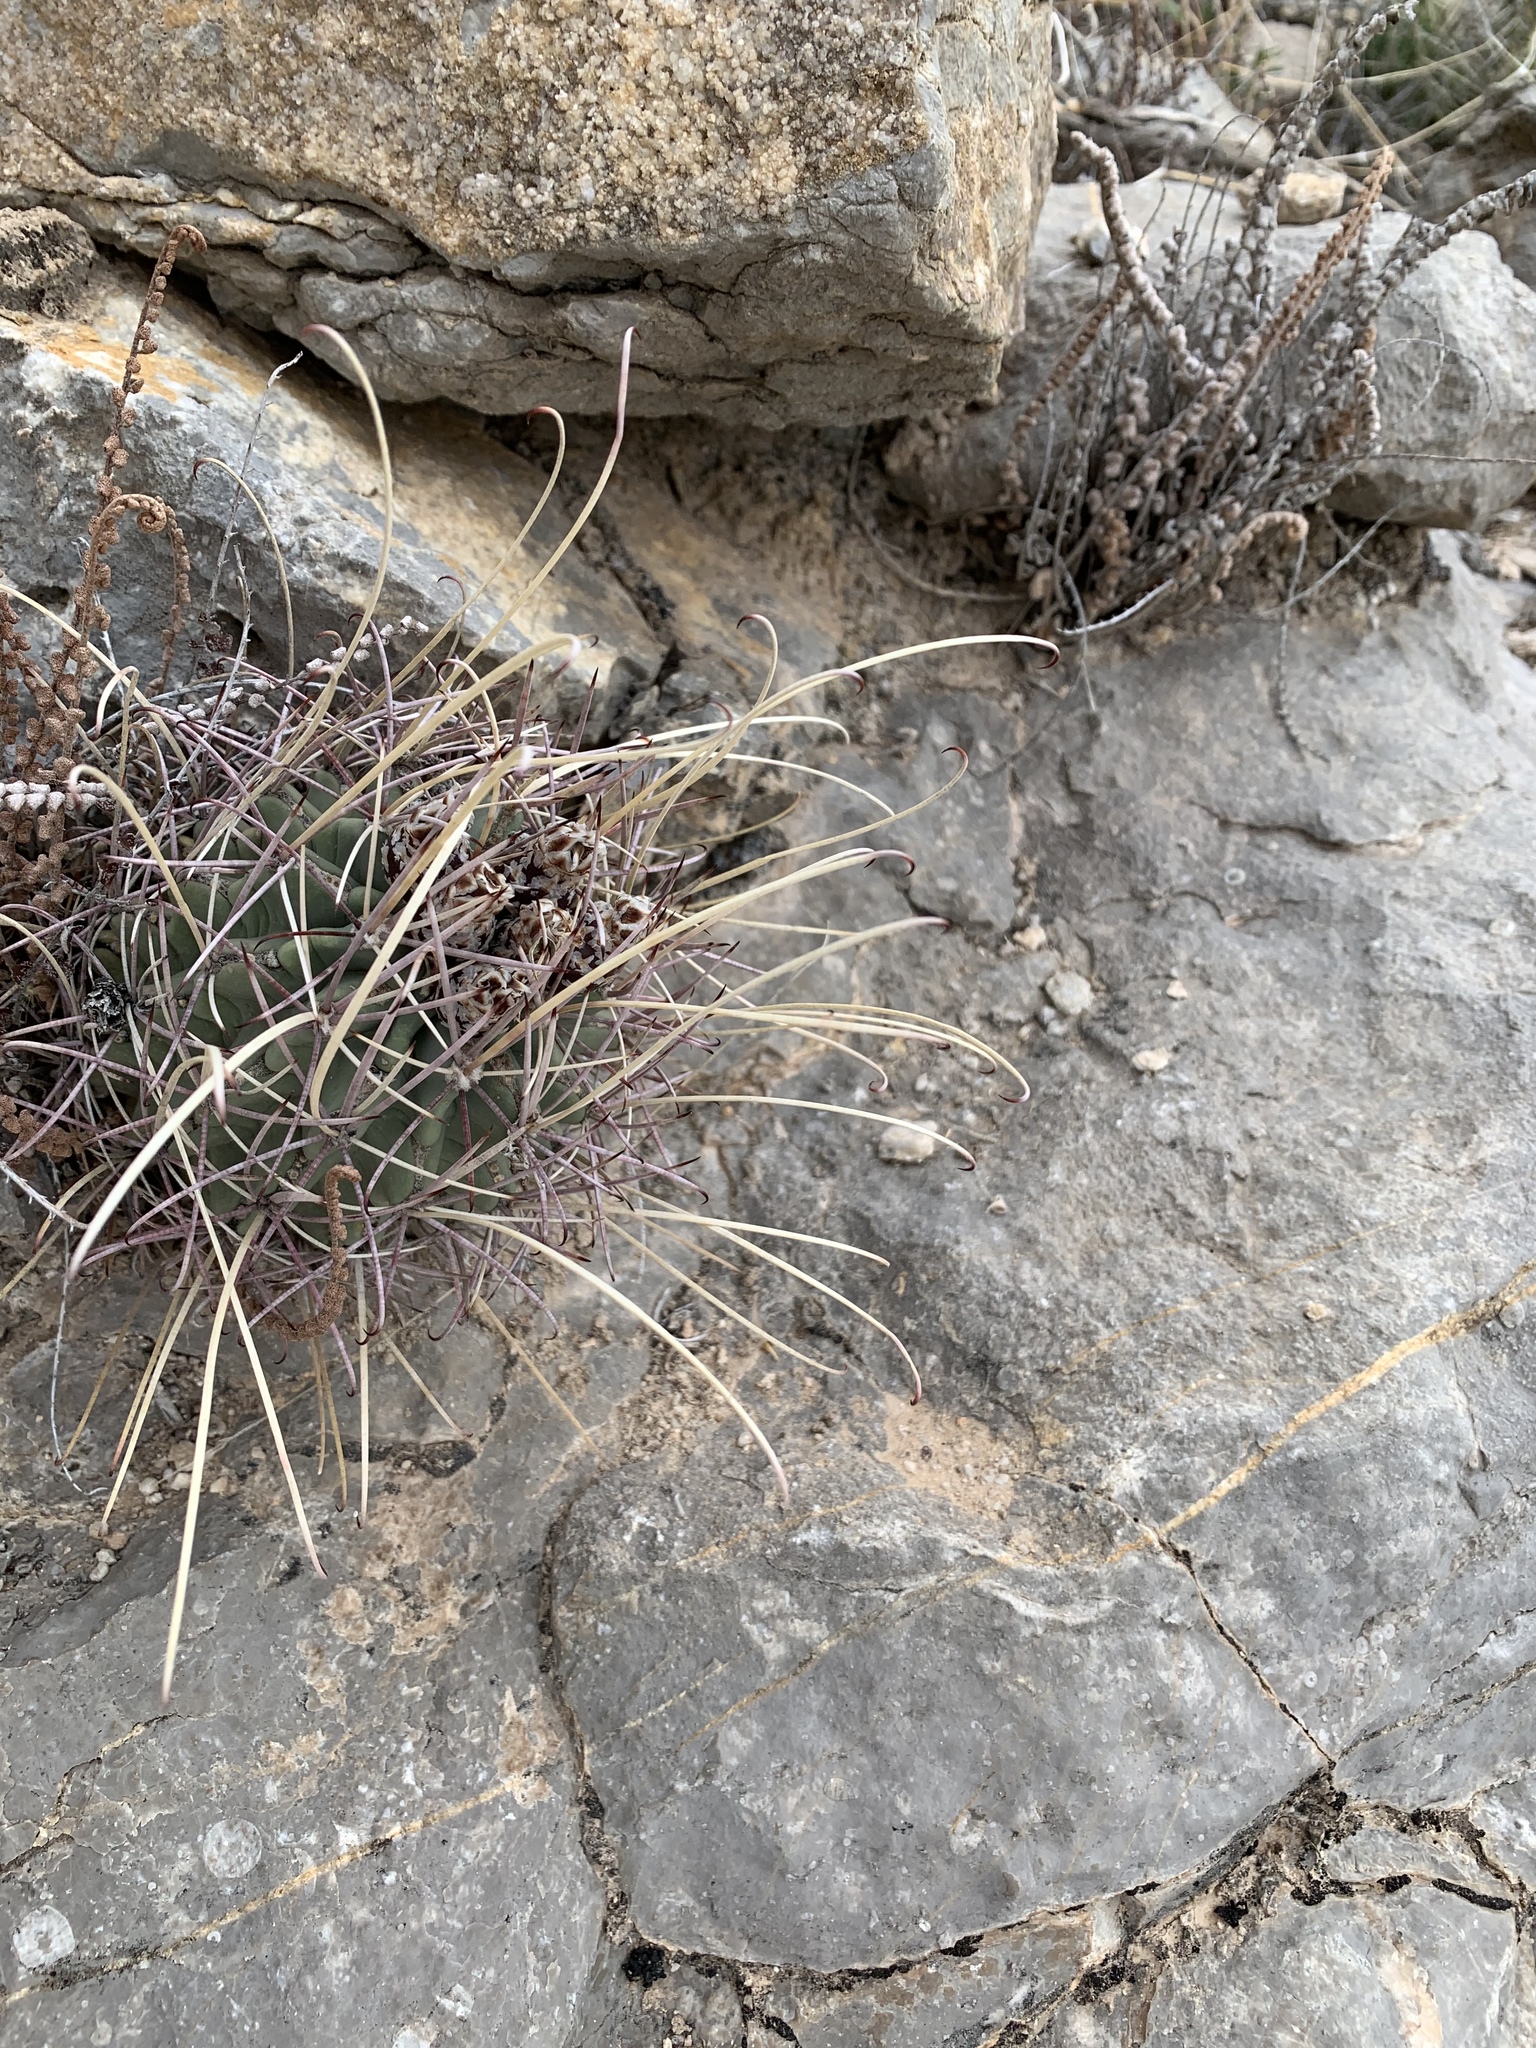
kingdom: Plantae
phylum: Tracheophyta
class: Magnoliopsida
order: Caryophyllales
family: Cactaceae
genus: Ferocactus
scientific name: Ferocactus uncinatus
